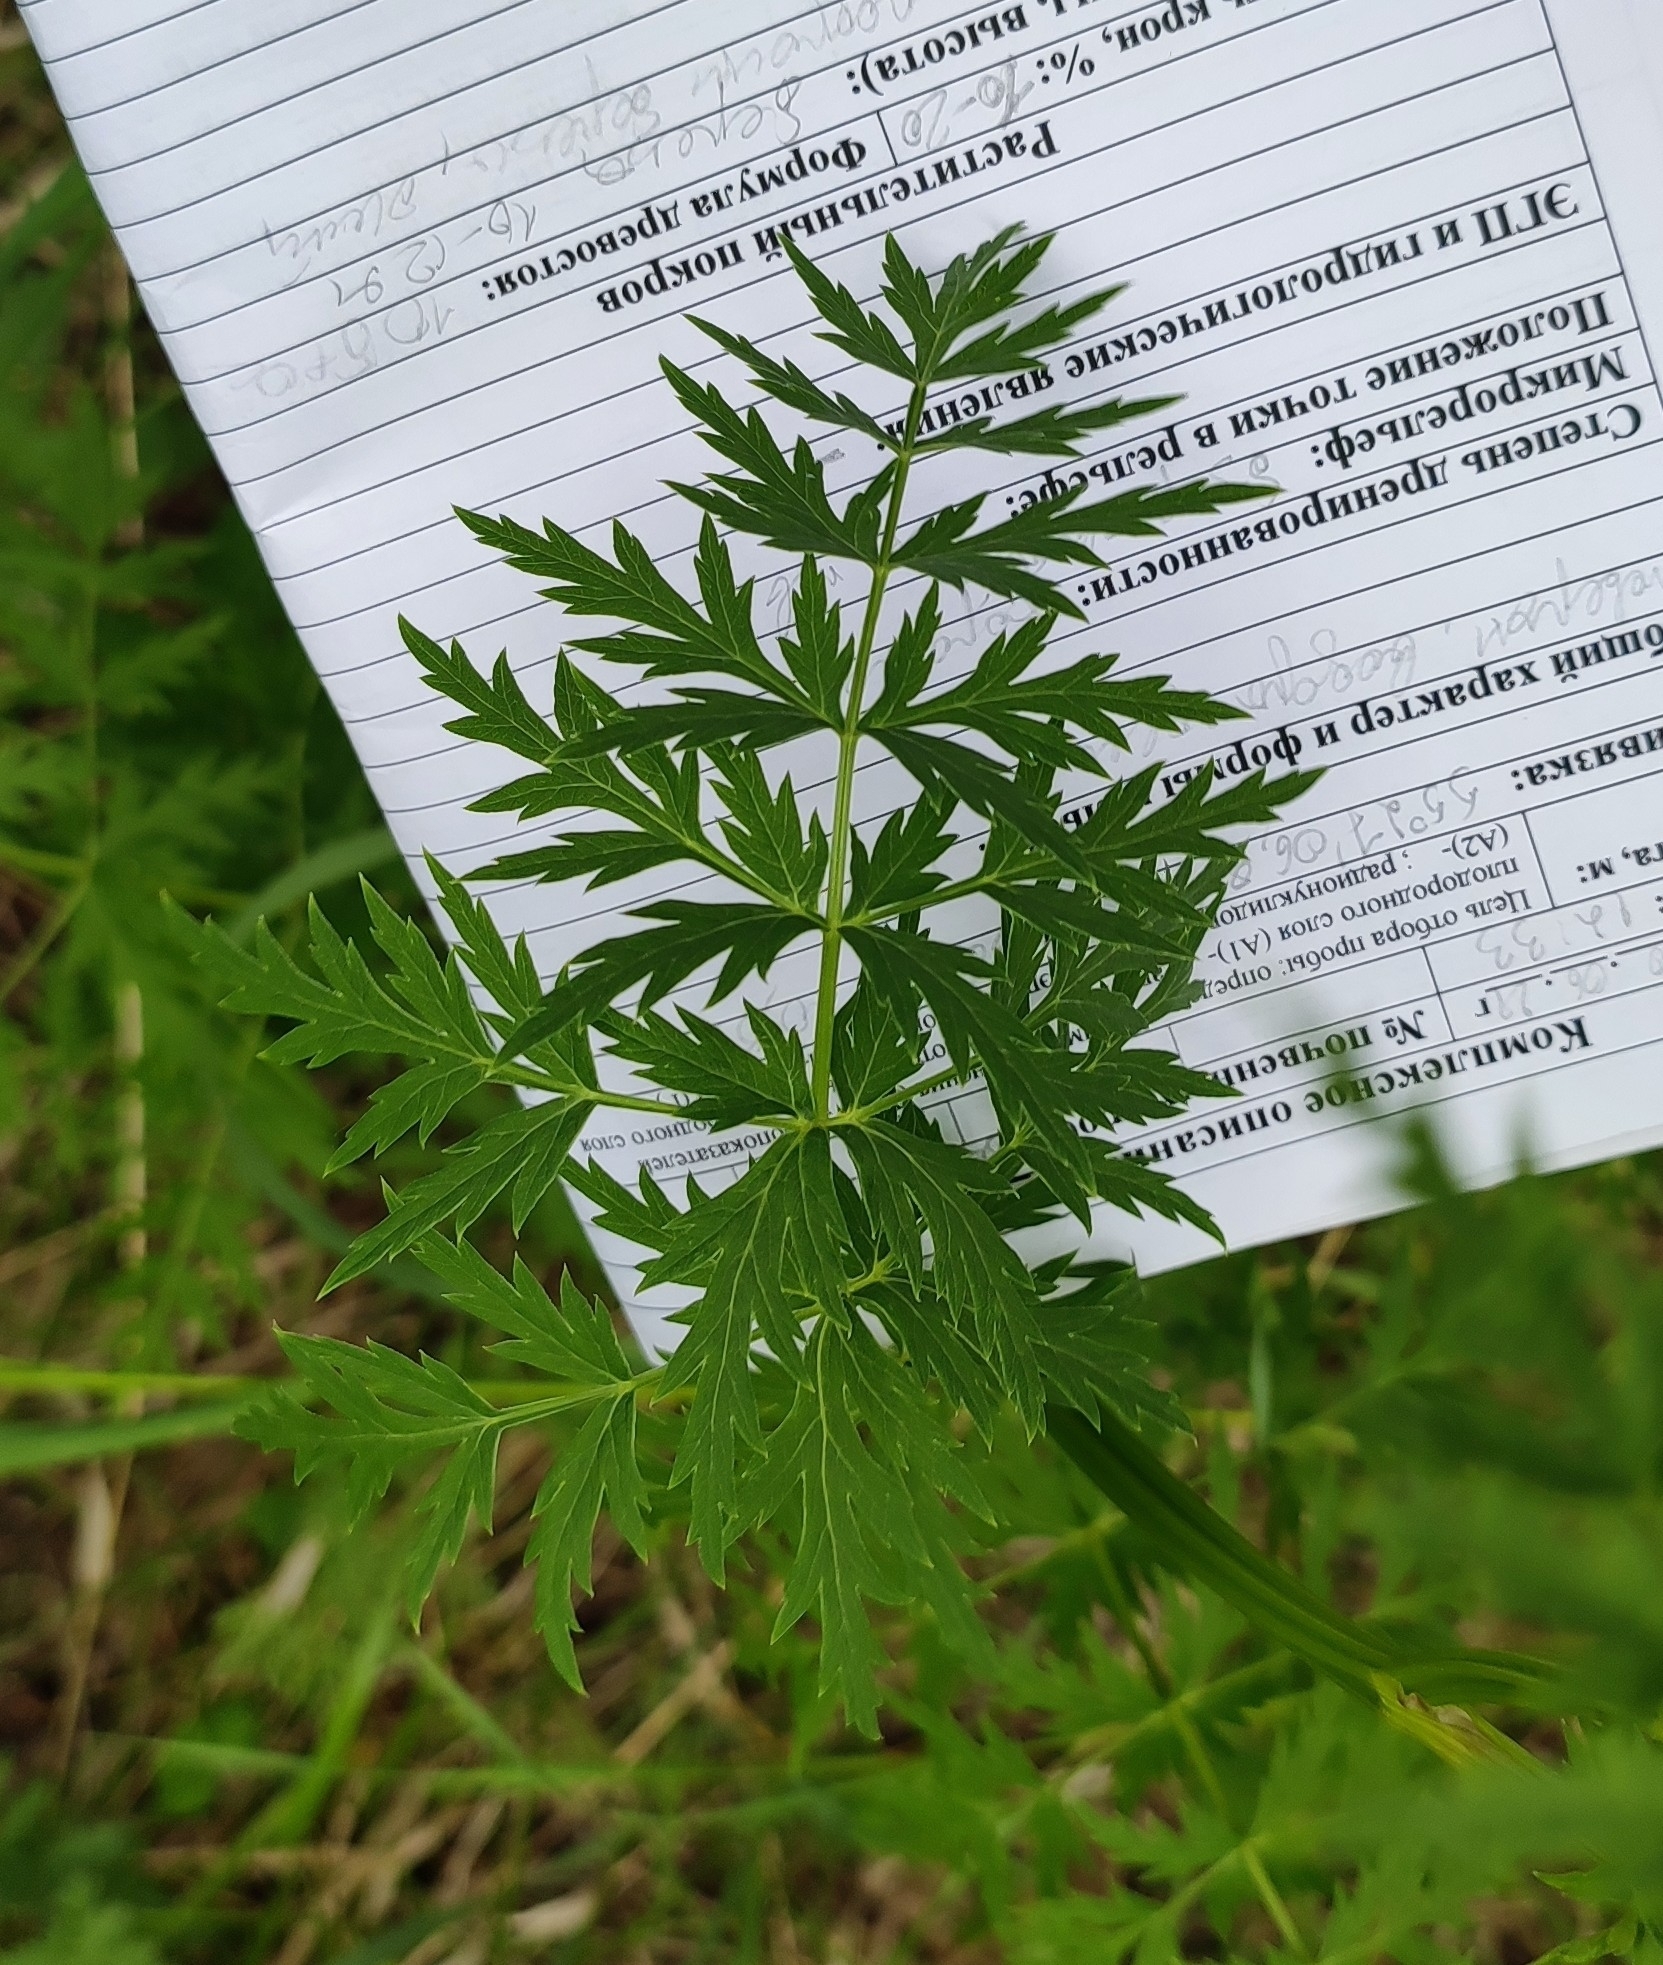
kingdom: Plantae
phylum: Tracheophyta
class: Magnoliopsida
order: Apiales
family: Apiaceae
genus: Seseli
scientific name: Seseli libanotis
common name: Mooncarrot
